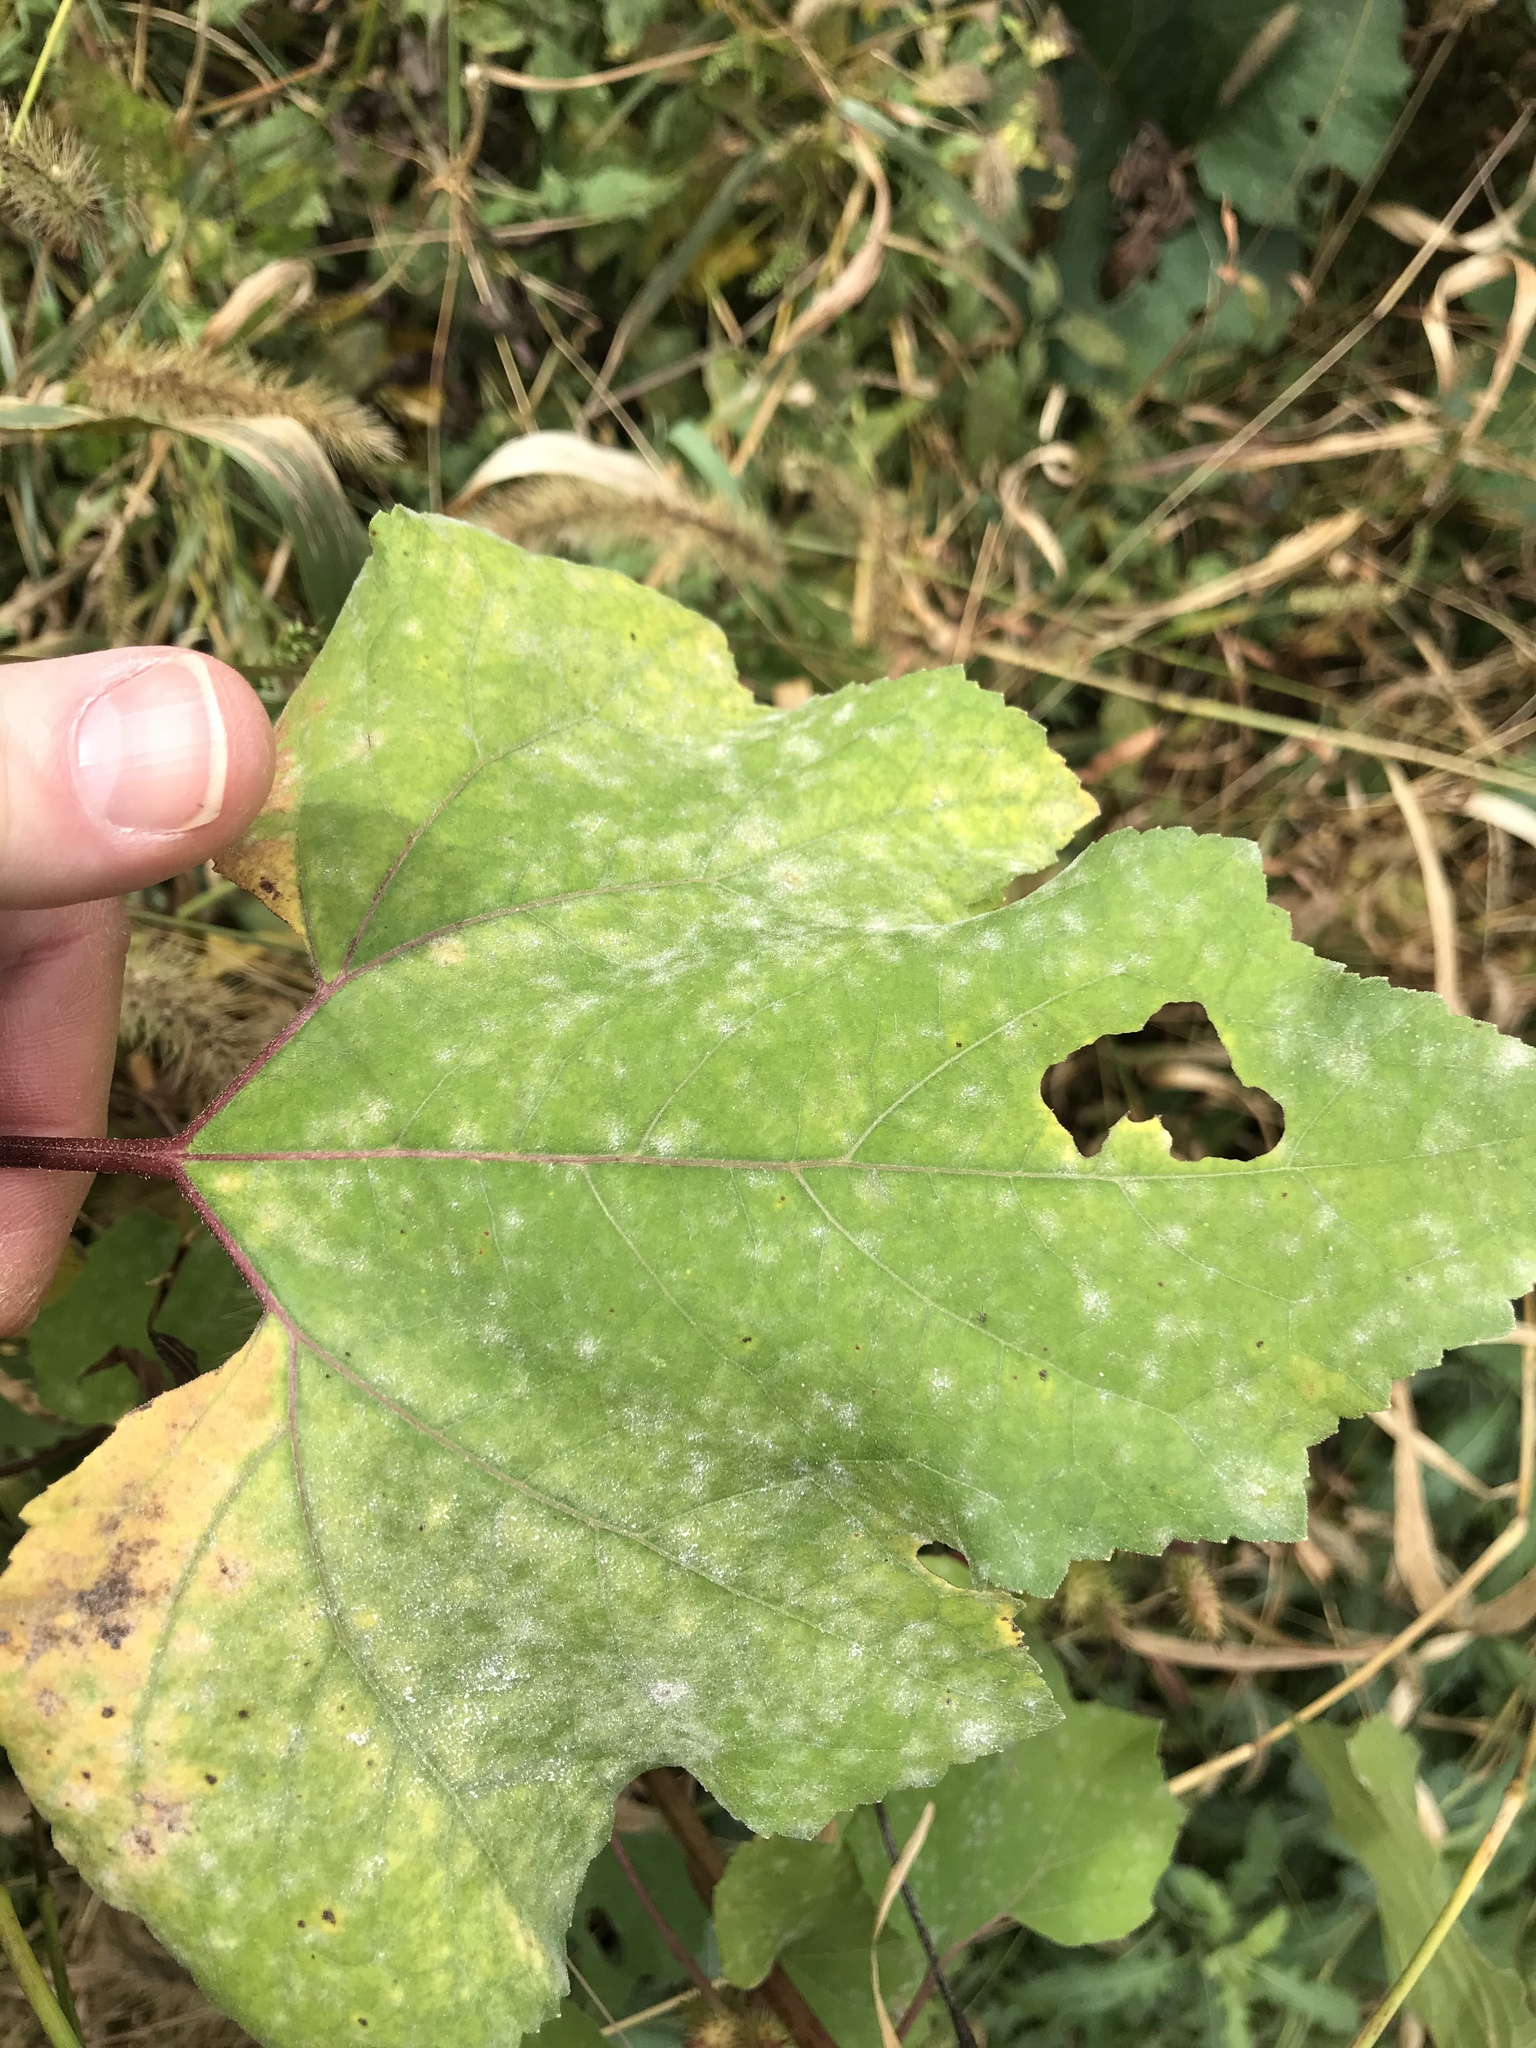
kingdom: Plantae
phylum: Tracheophyta
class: Magnoliopsida
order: Asterales
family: Asteraceae
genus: Xanthium
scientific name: Xanthium strumarium
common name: Rough cocklebur
